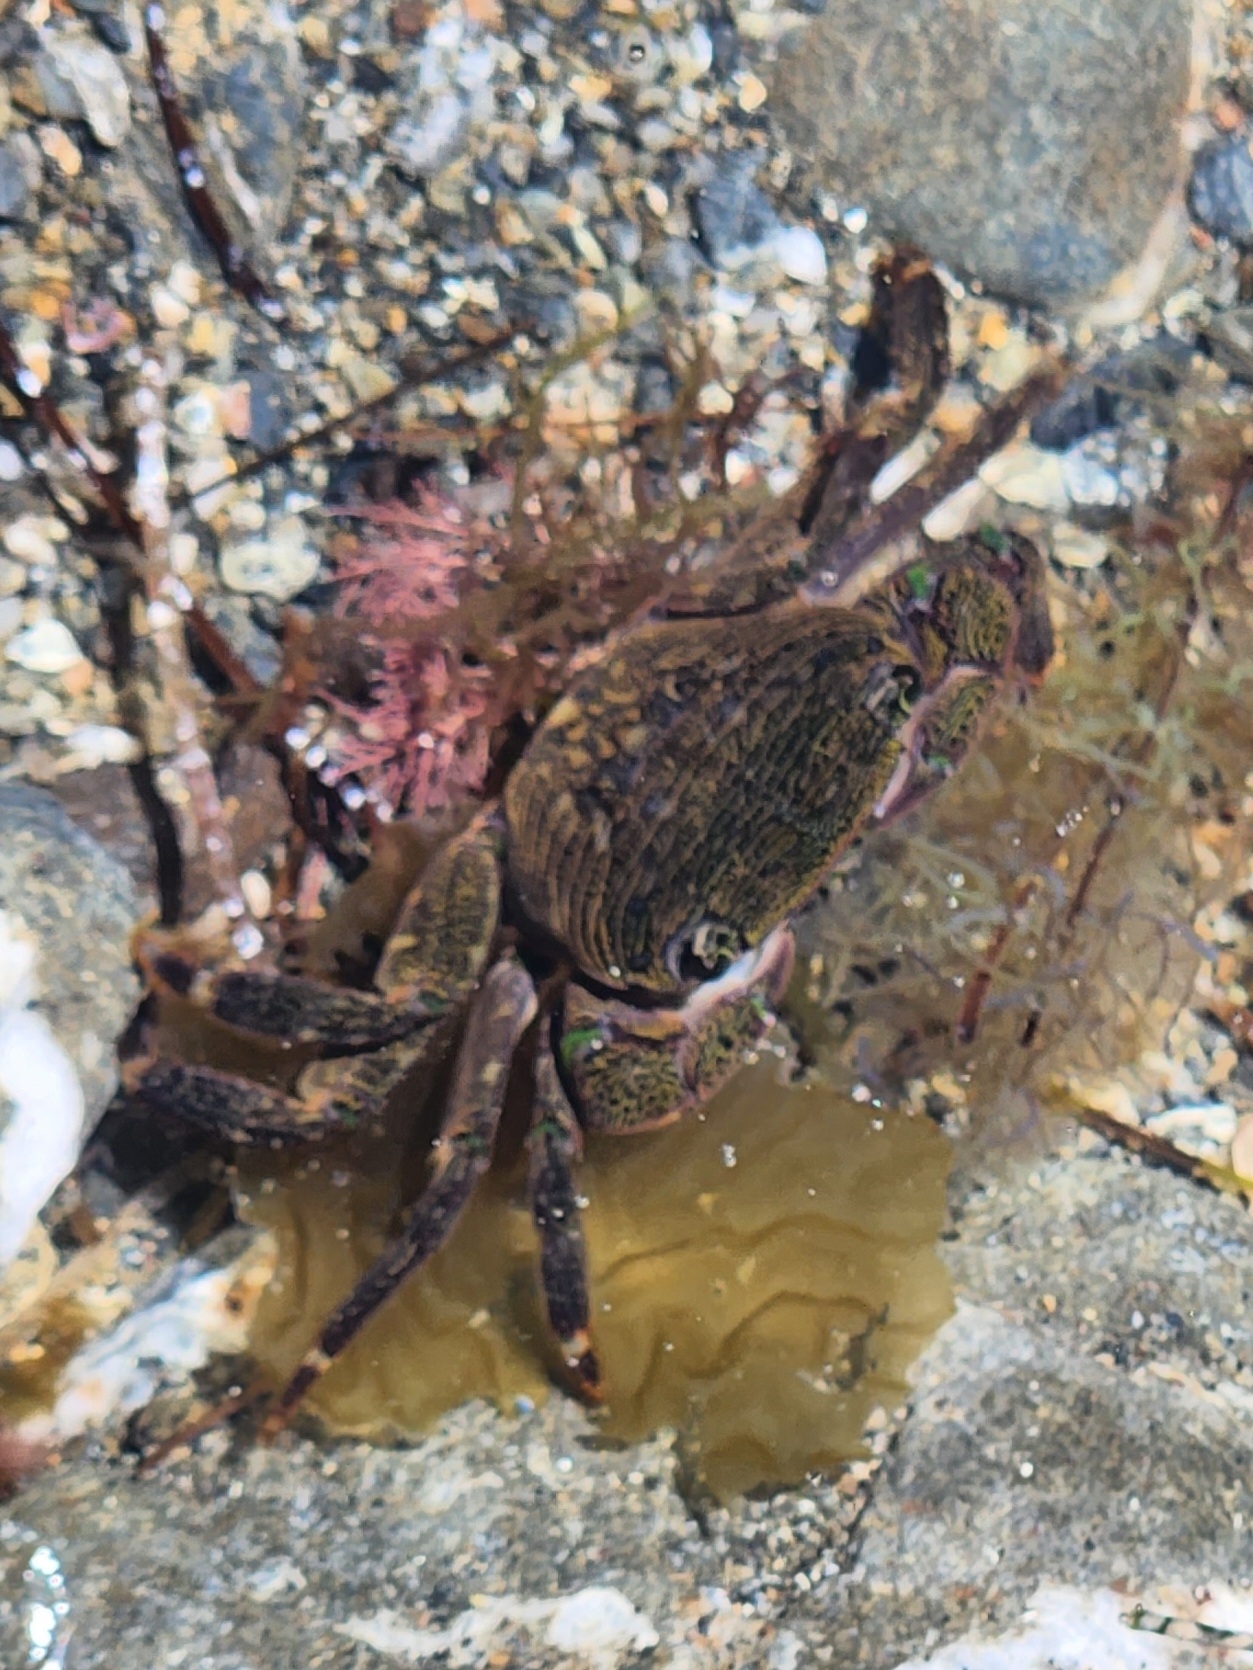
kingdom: Animalia
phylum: Arthropoda
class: Malacostraca
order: Decapoda
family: Grapsidae
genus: Pachygrapsus
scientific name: Pachygrapsus crassipes
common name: Striped shore crab
